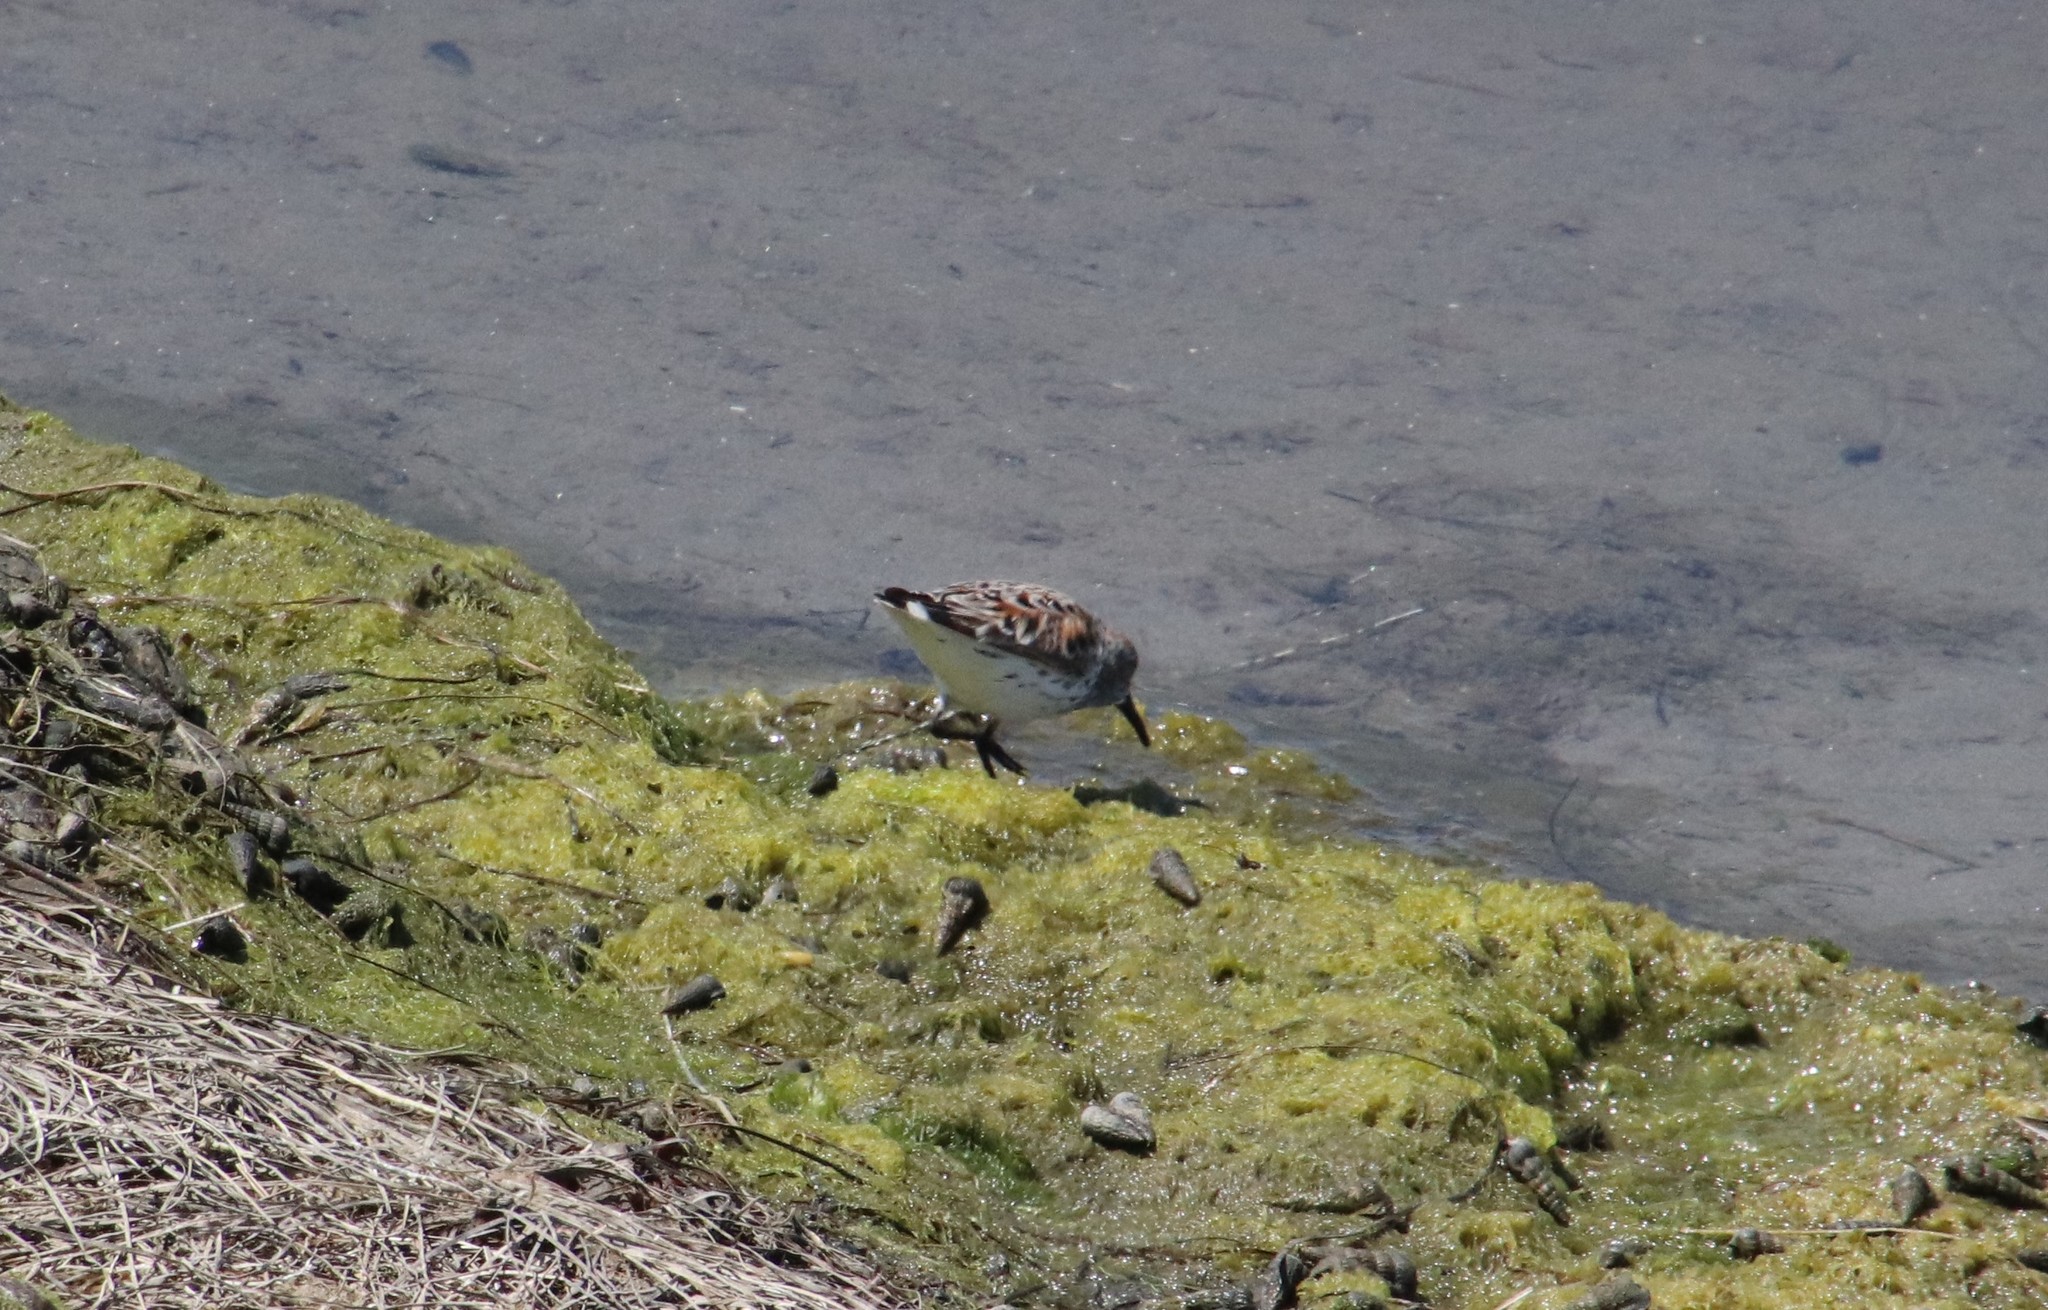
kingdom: Animalia
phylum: Chordata
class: Aves
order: Charadriiformes
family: Scolopacidae
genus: Calidris
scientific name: Calidris mauri
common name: Western sandpiper
